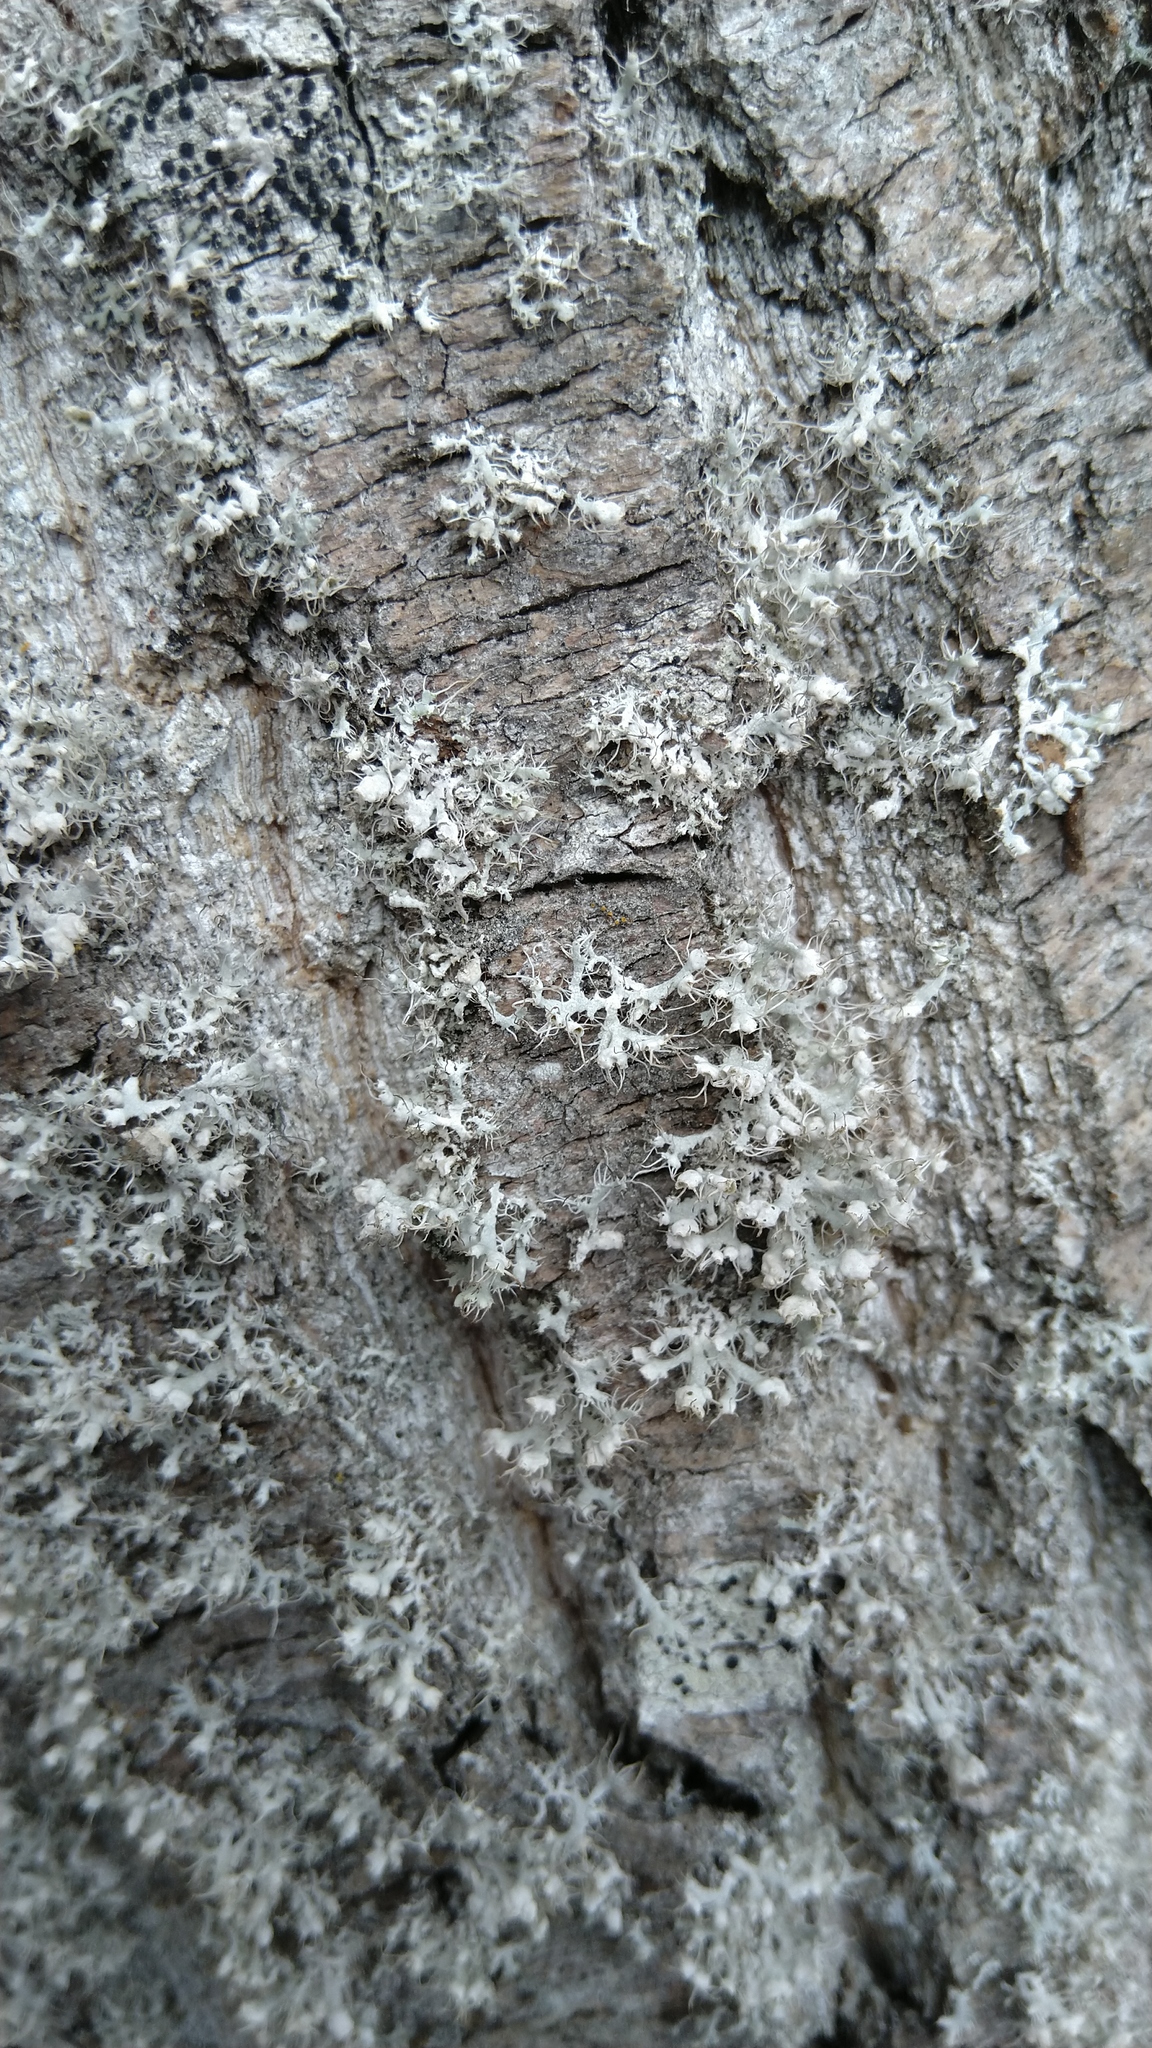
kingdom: Fungi
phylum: Ascomycota
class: Lecanoromycetes
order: Caliciales
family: Physciaceae
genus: Physcia
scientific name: Physcia adscendens
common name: Hooded rosette lichen
